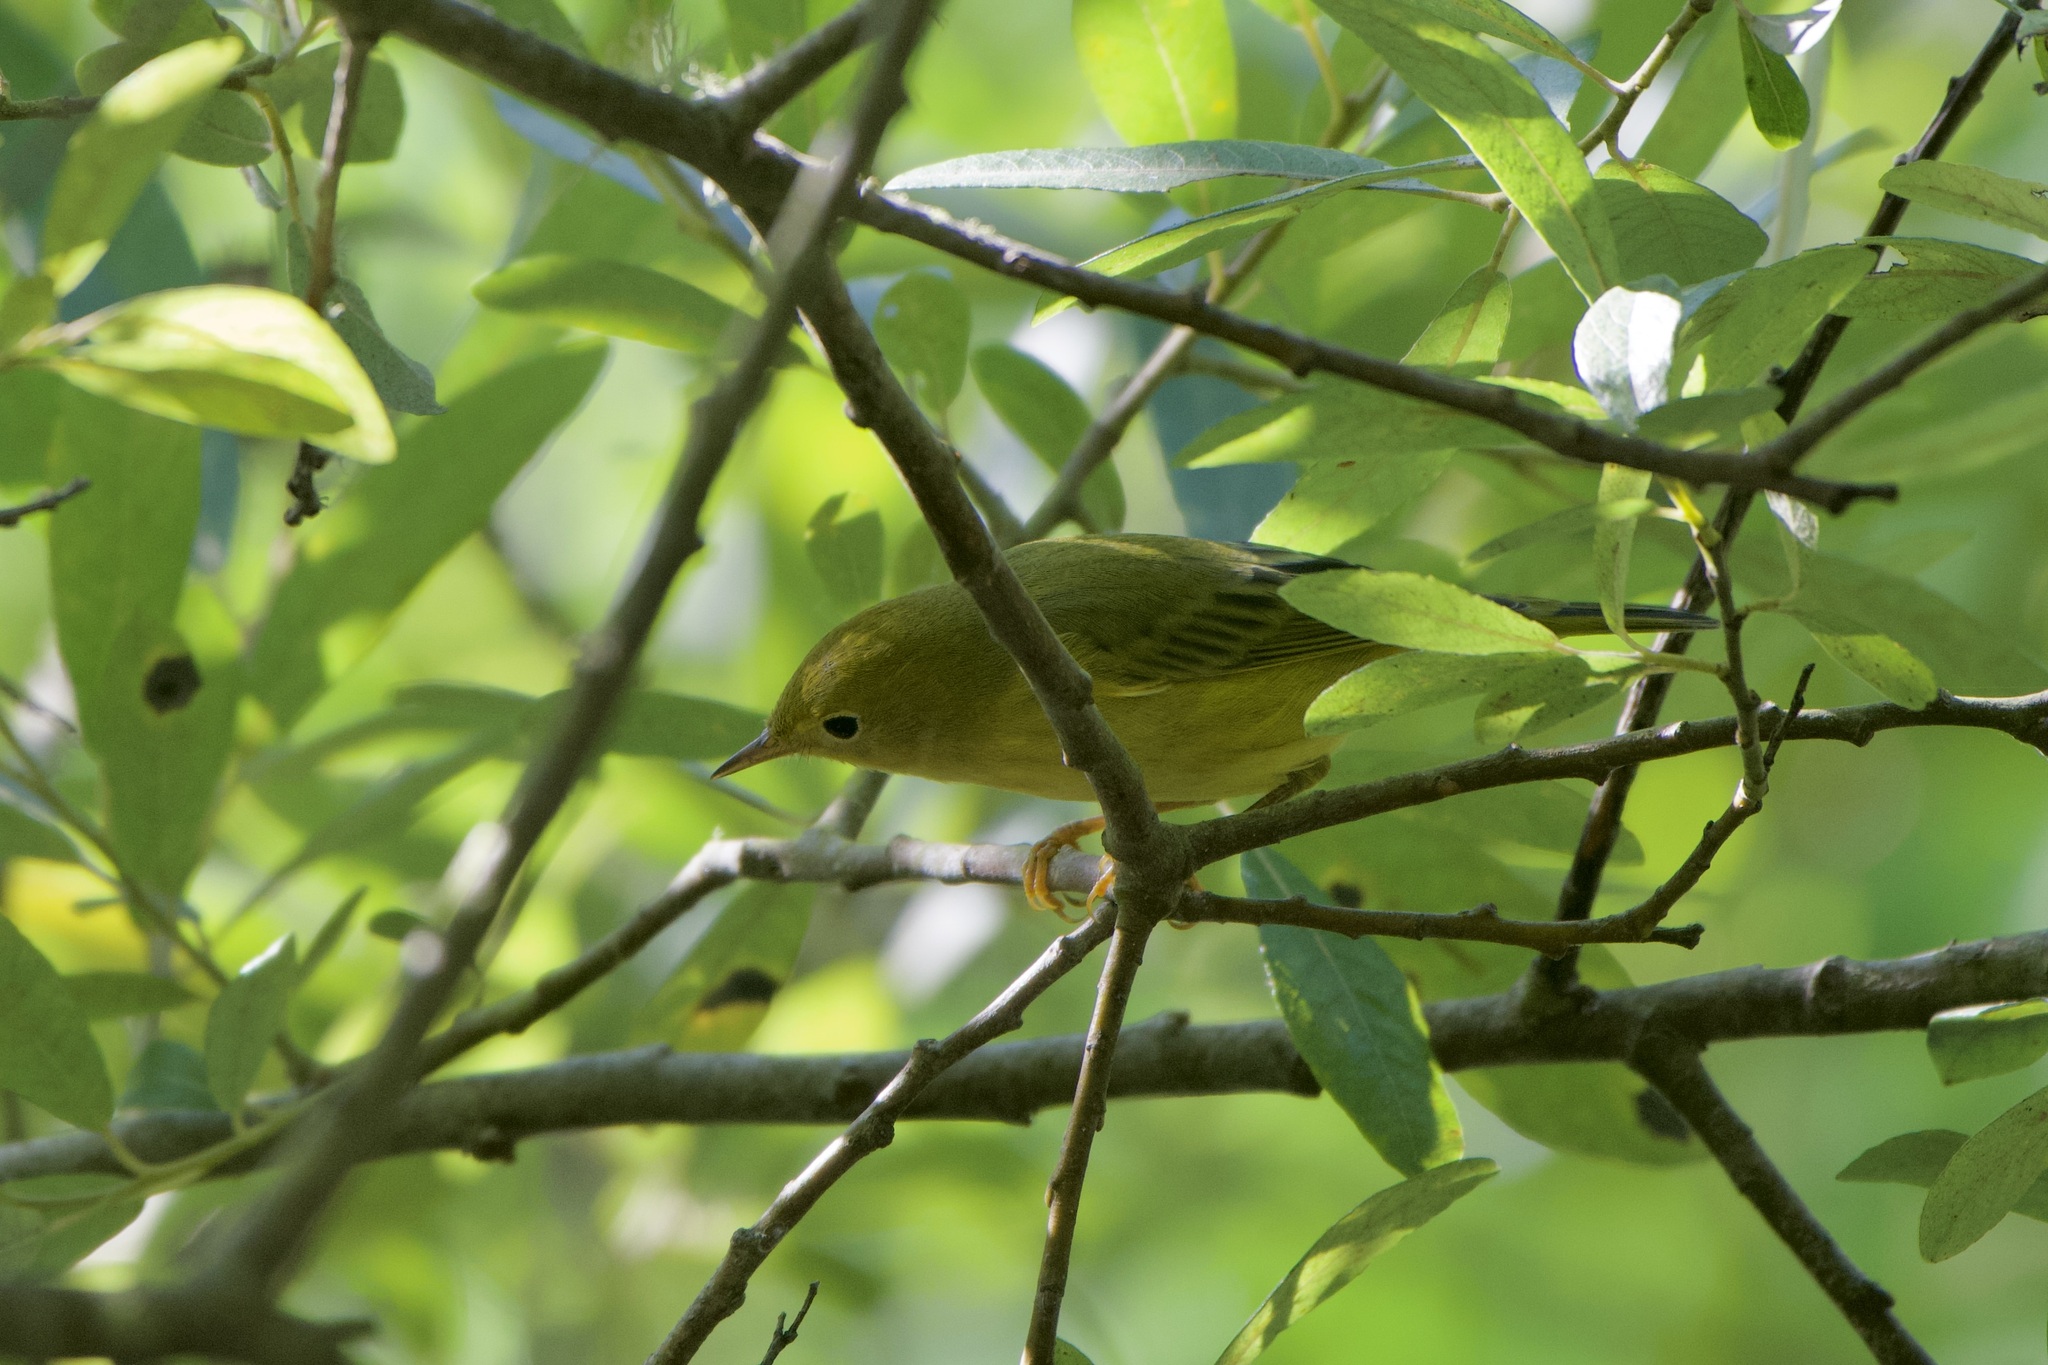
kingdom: Animalia
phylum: Chordata
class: Aves
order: Passeriformes
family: Parulidae
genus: Setophaga
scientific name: Setophaga petechia
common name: Yellow warbler
